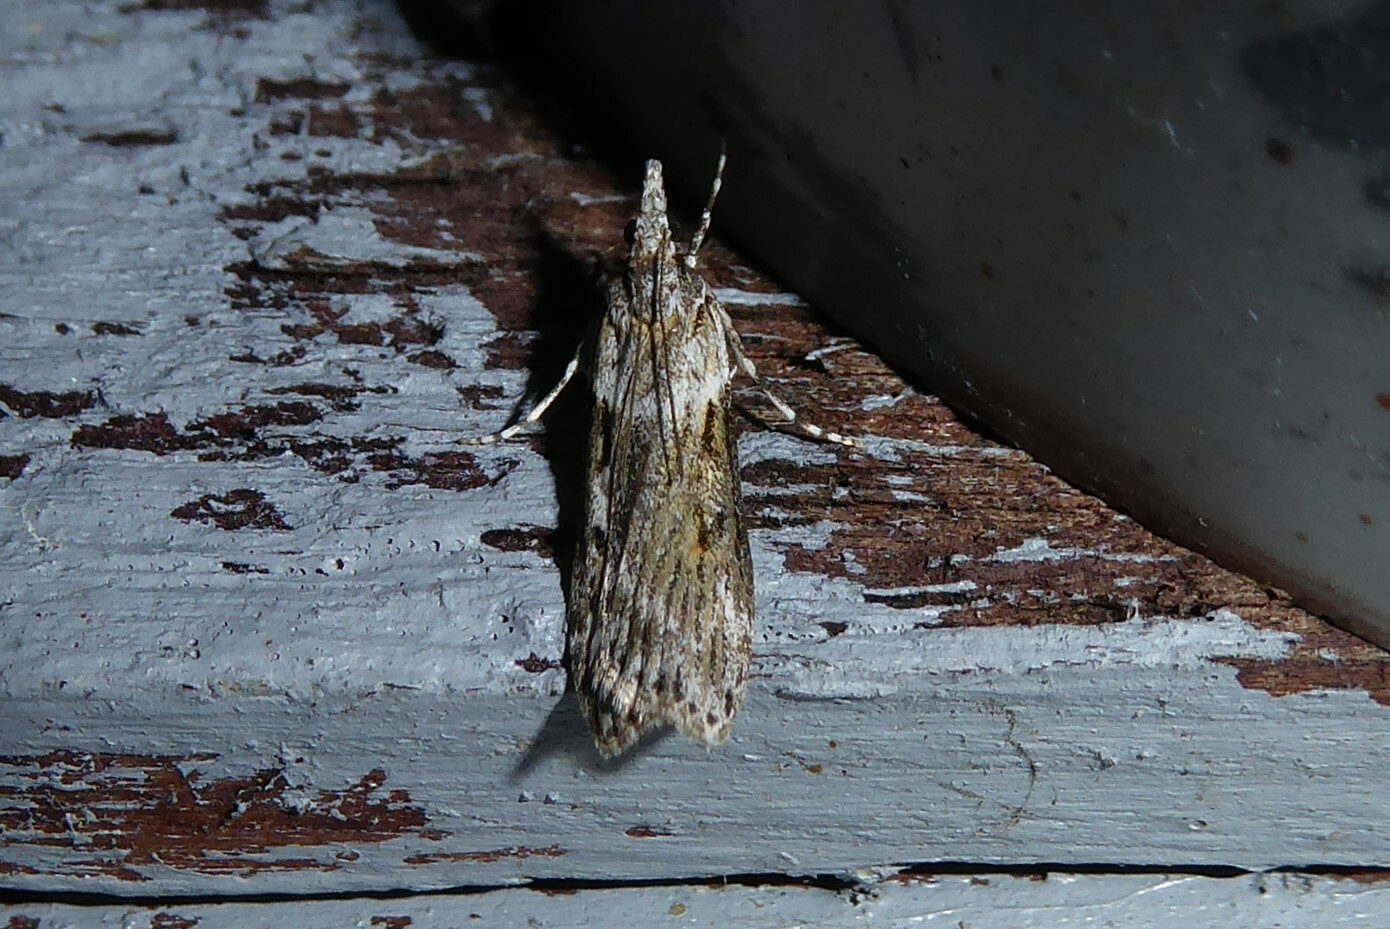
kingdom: Animalia
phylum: Arthropoda
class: Insecta
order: Lepidoptera
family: Crambidae
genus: Scoparia
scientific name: Scoparia halopis
